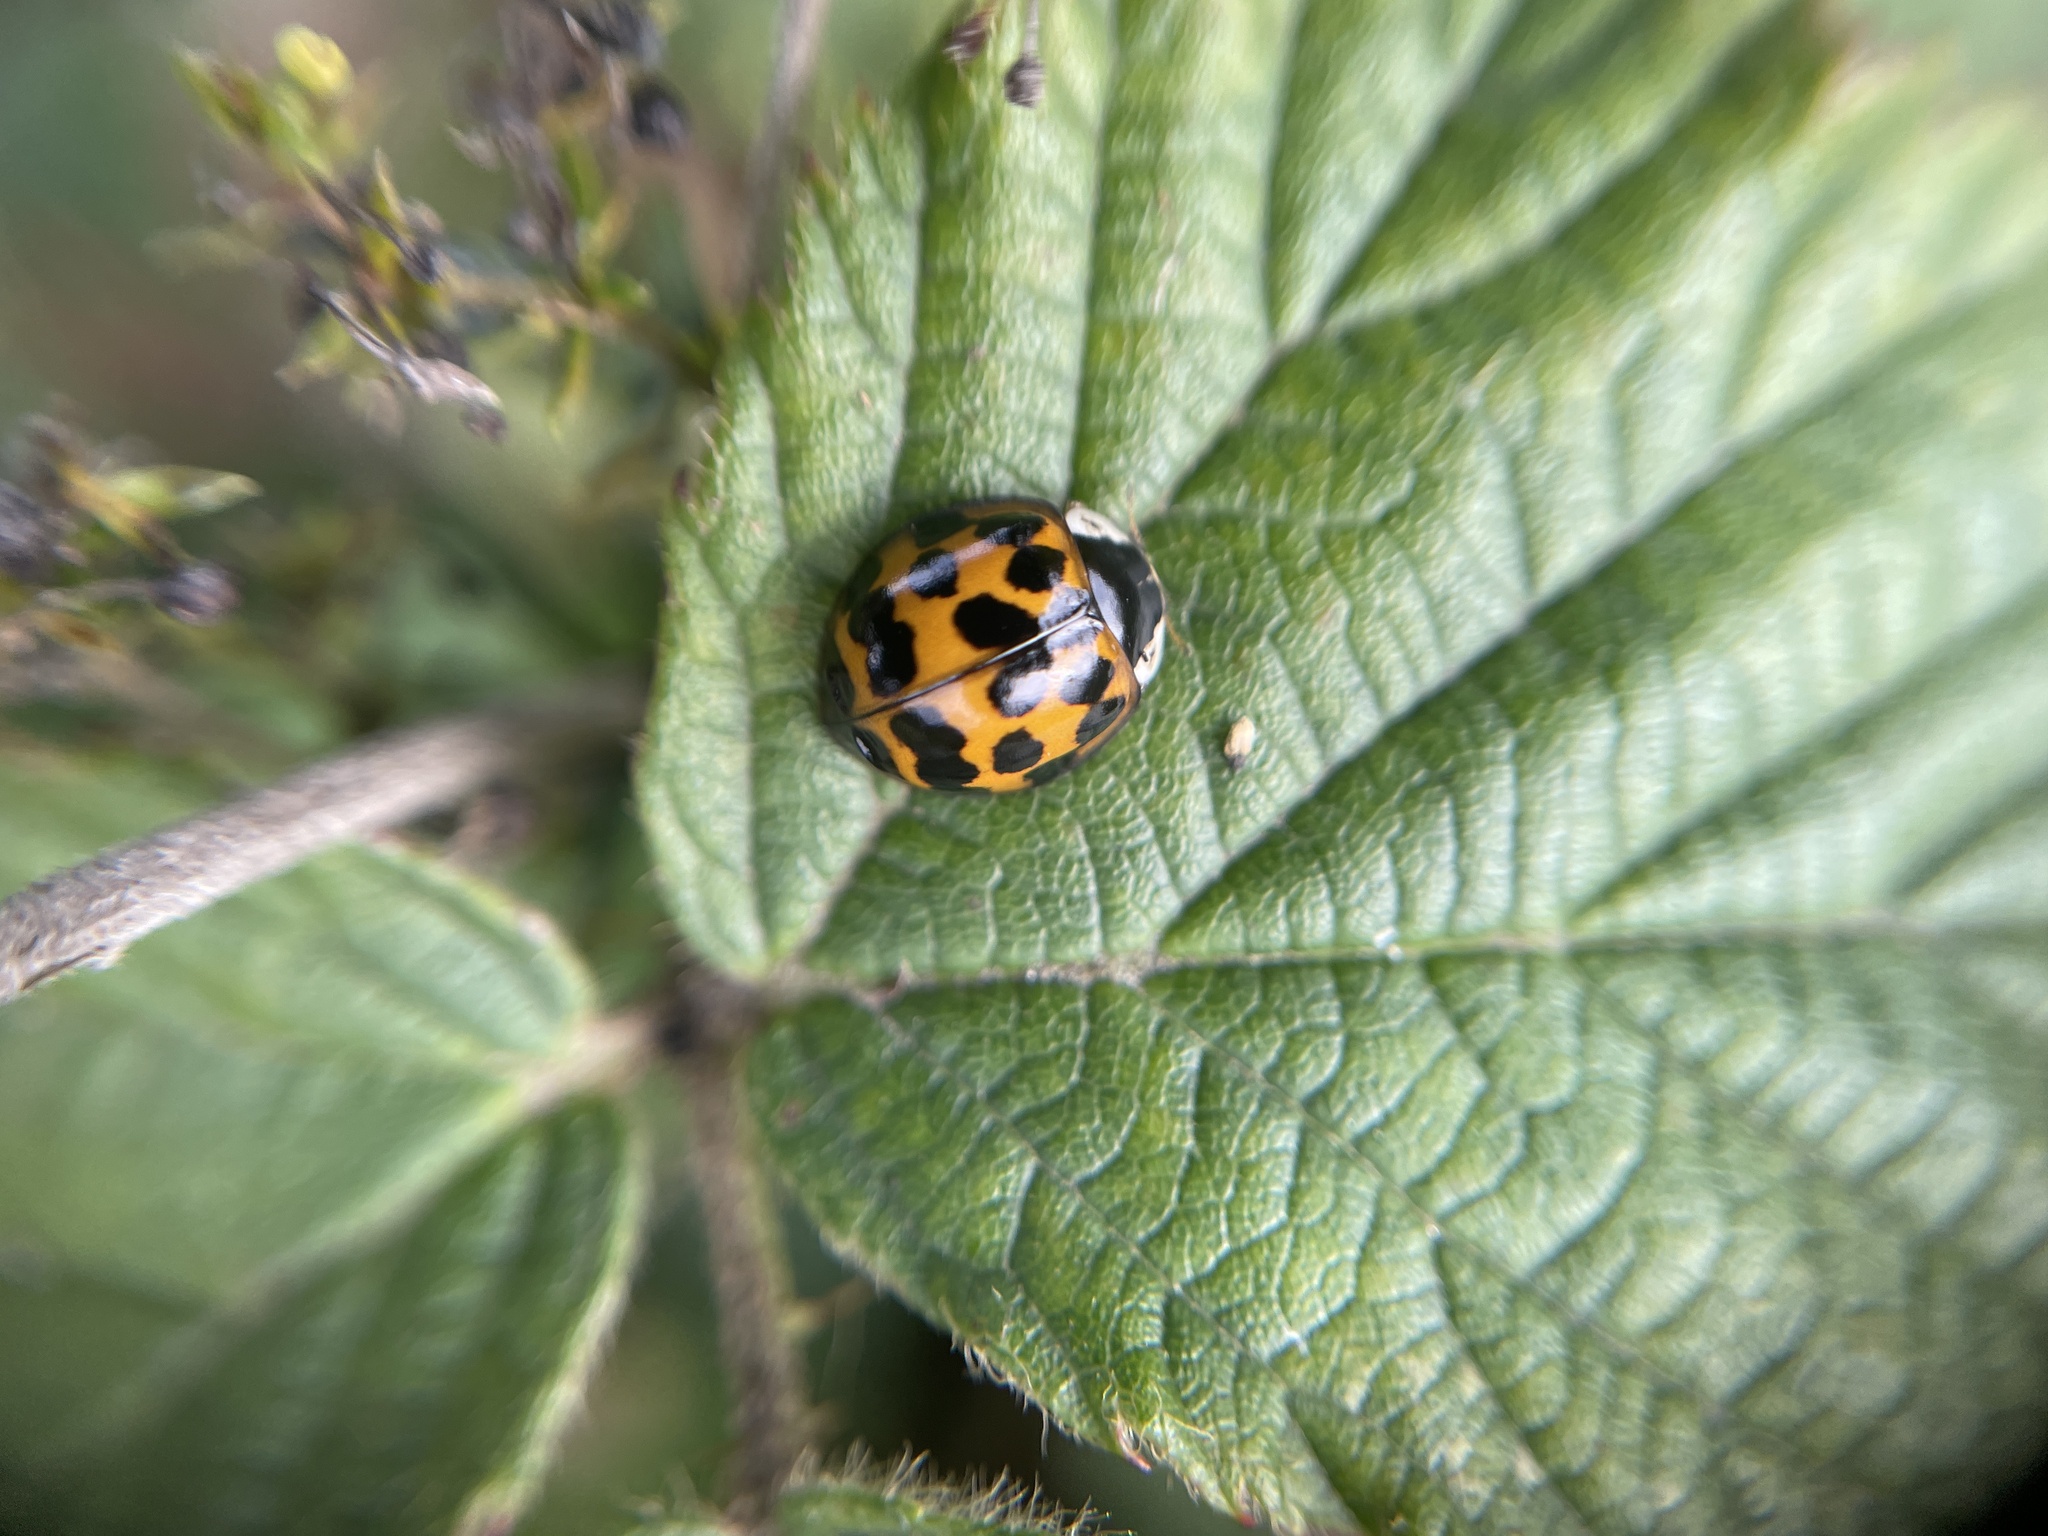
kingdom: Animalia
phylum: Arthropoda
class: Insecta
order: Coleoptera
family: Coccinellidae
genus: Harmonia
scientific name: Harmonia axyridis
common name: Harlequin ladybird
